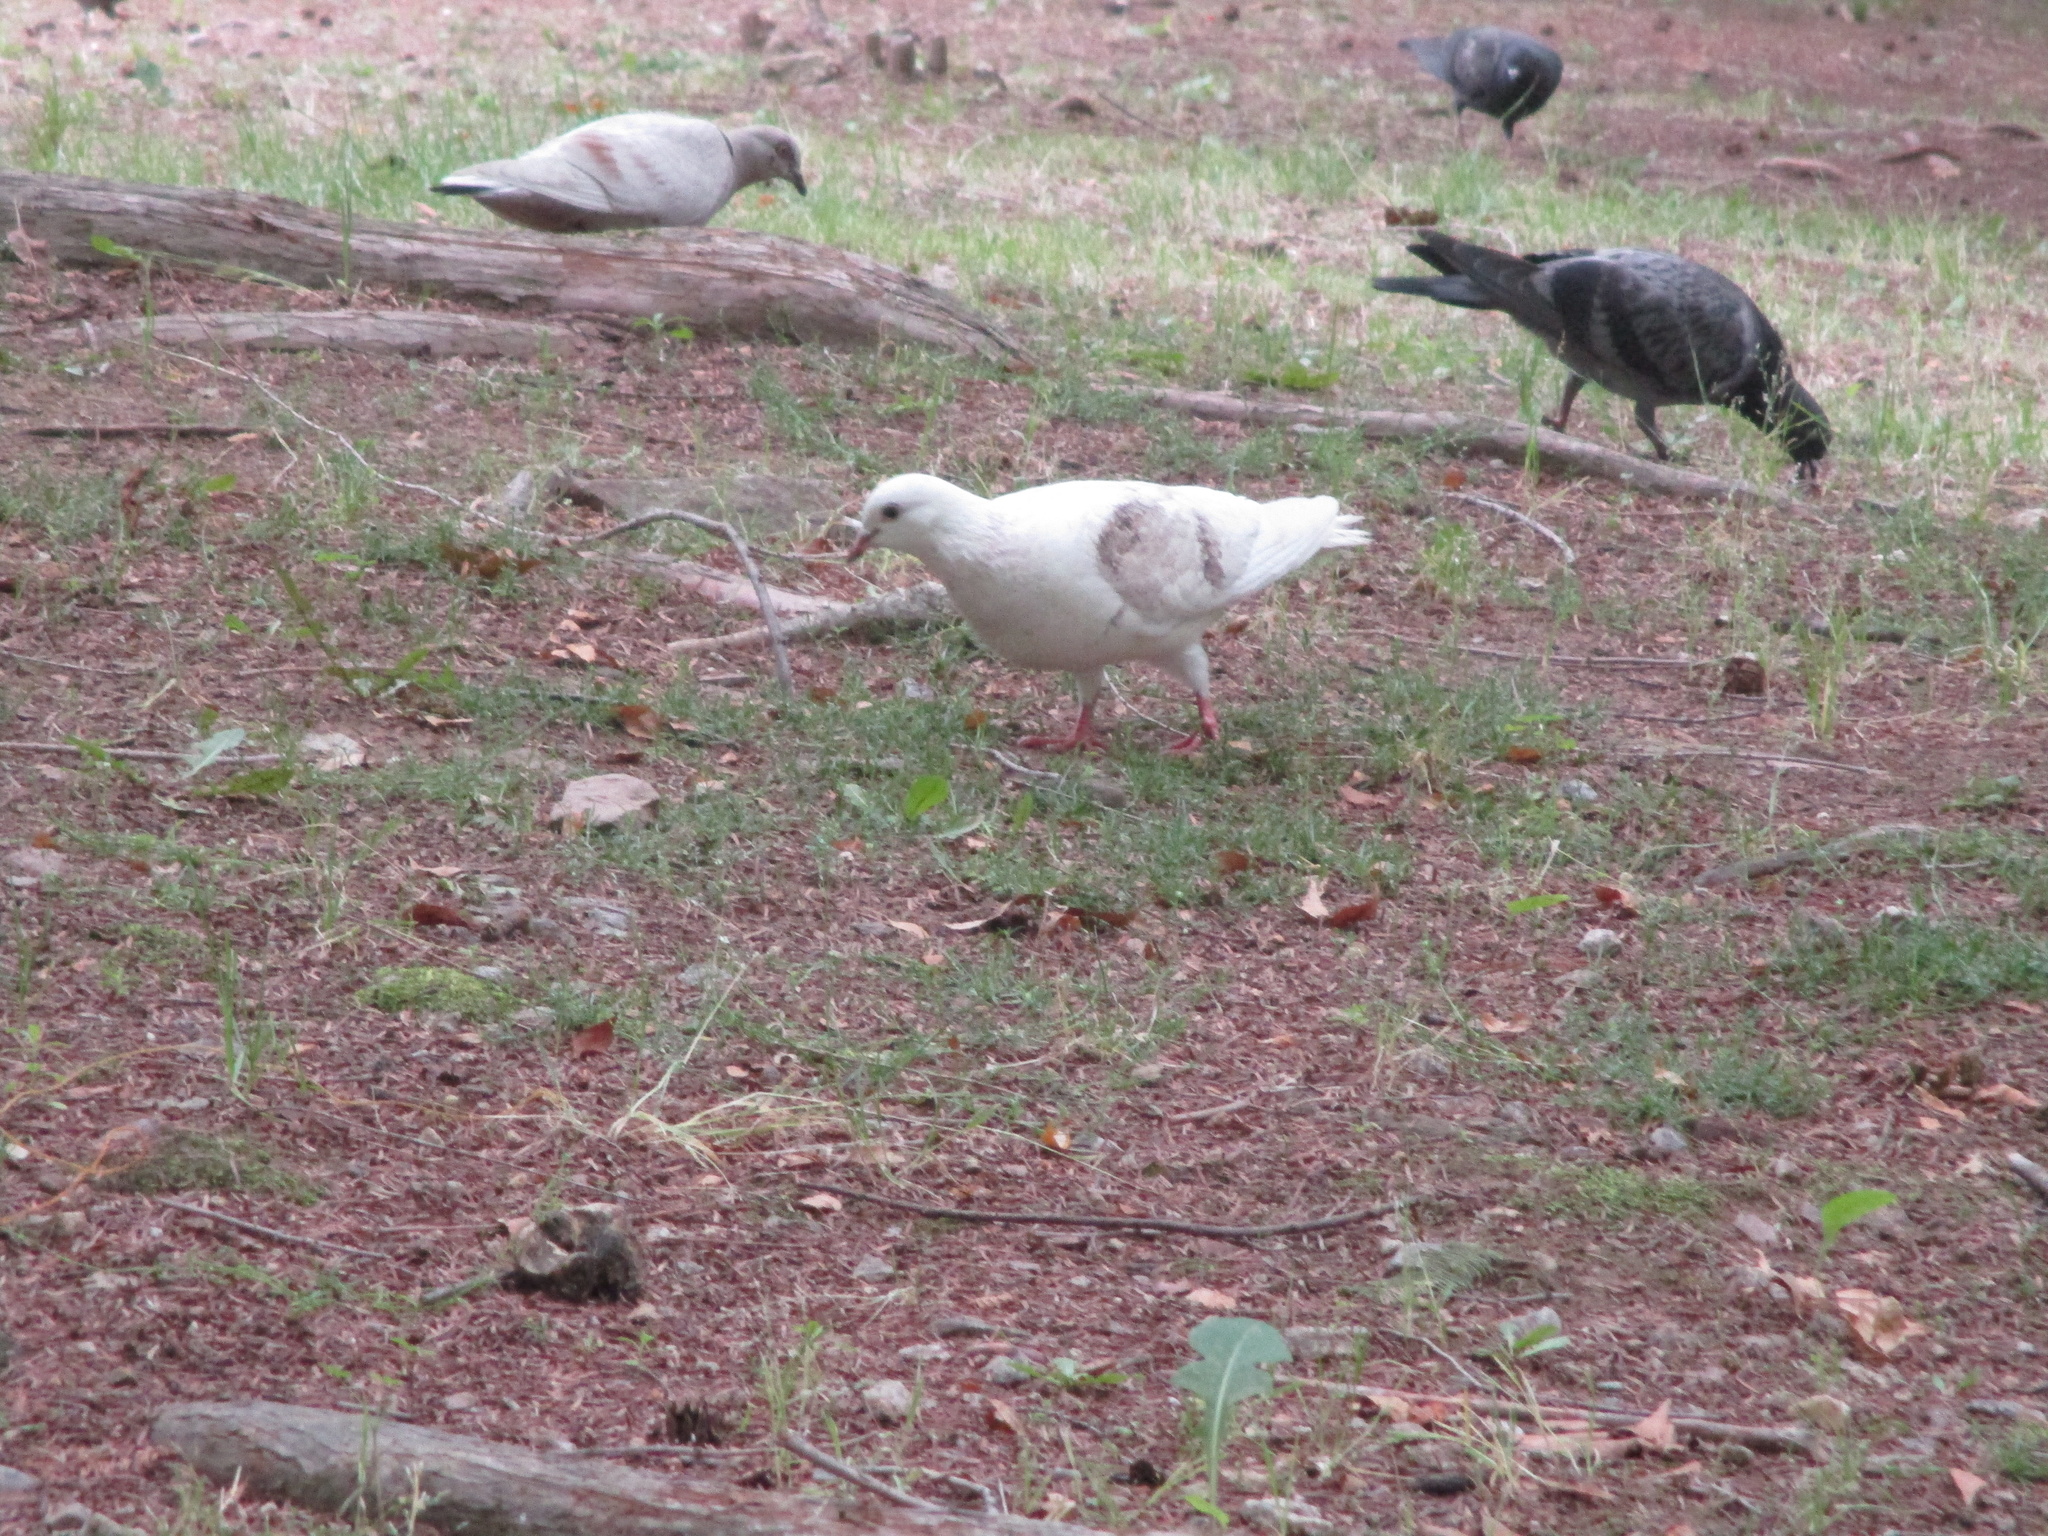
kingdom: Animalia
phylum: Chordata
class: Aves
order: Columbiformes
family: Columbidae
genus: Columba
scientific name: Columba livia
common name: Rock pigeon
